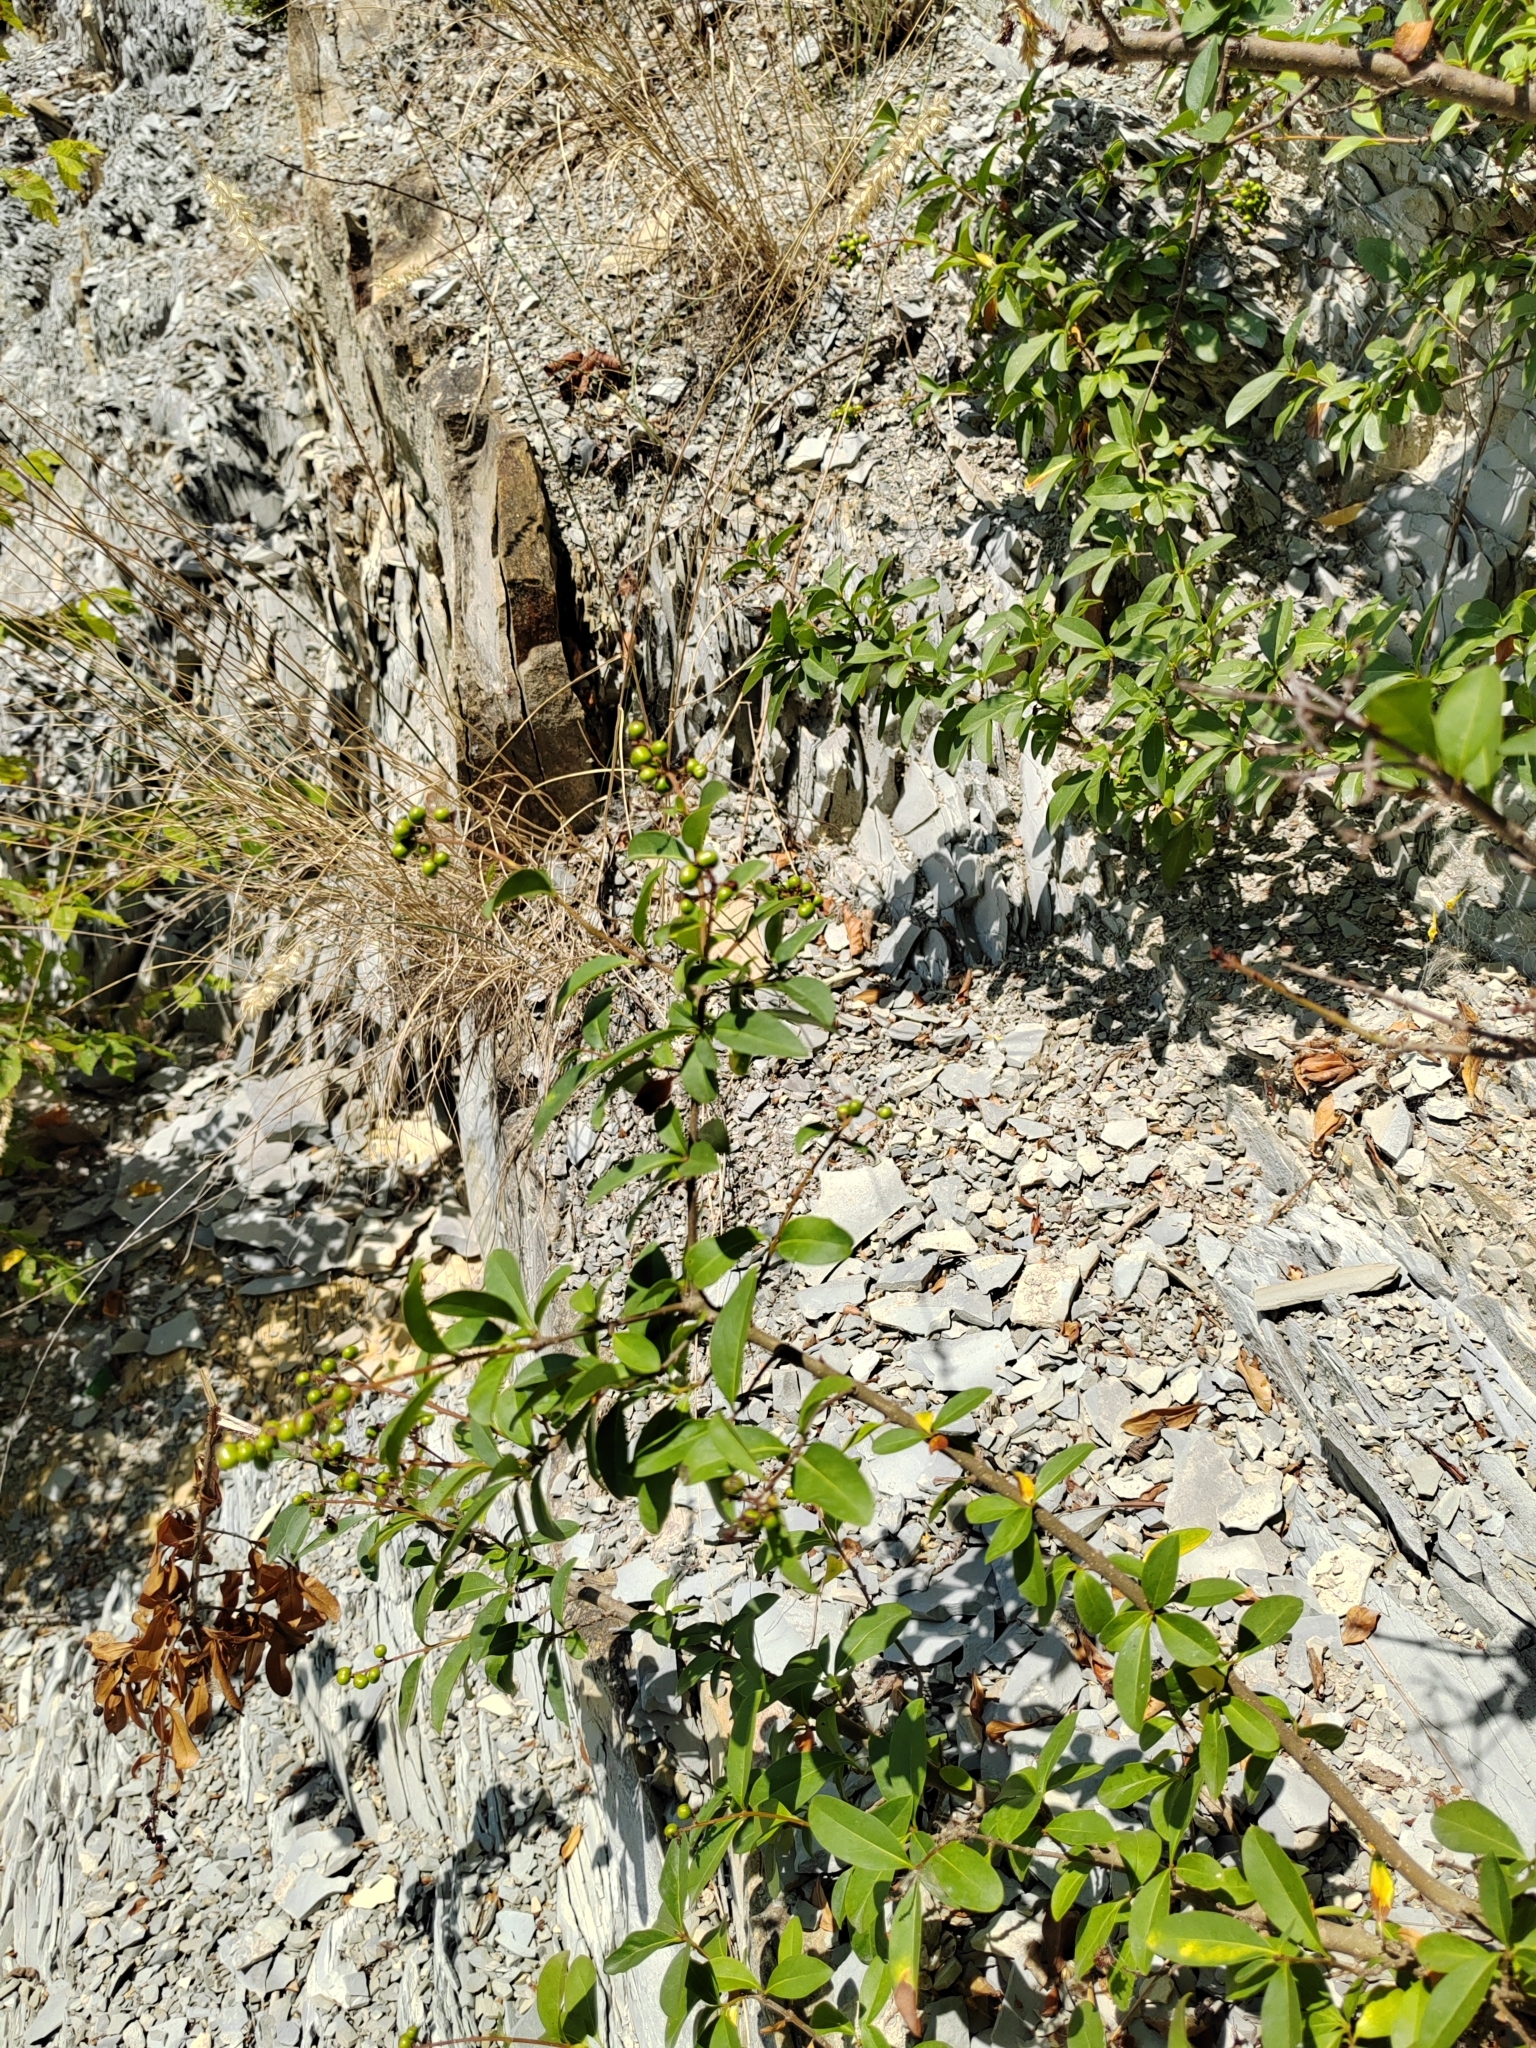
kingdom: Plantae
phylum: Tracheophyta
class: Magnoliopsida
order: Lamiales
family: Oleaceae
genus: Ligustrum
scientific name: Ligustrum vulgare
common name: Wild privet
